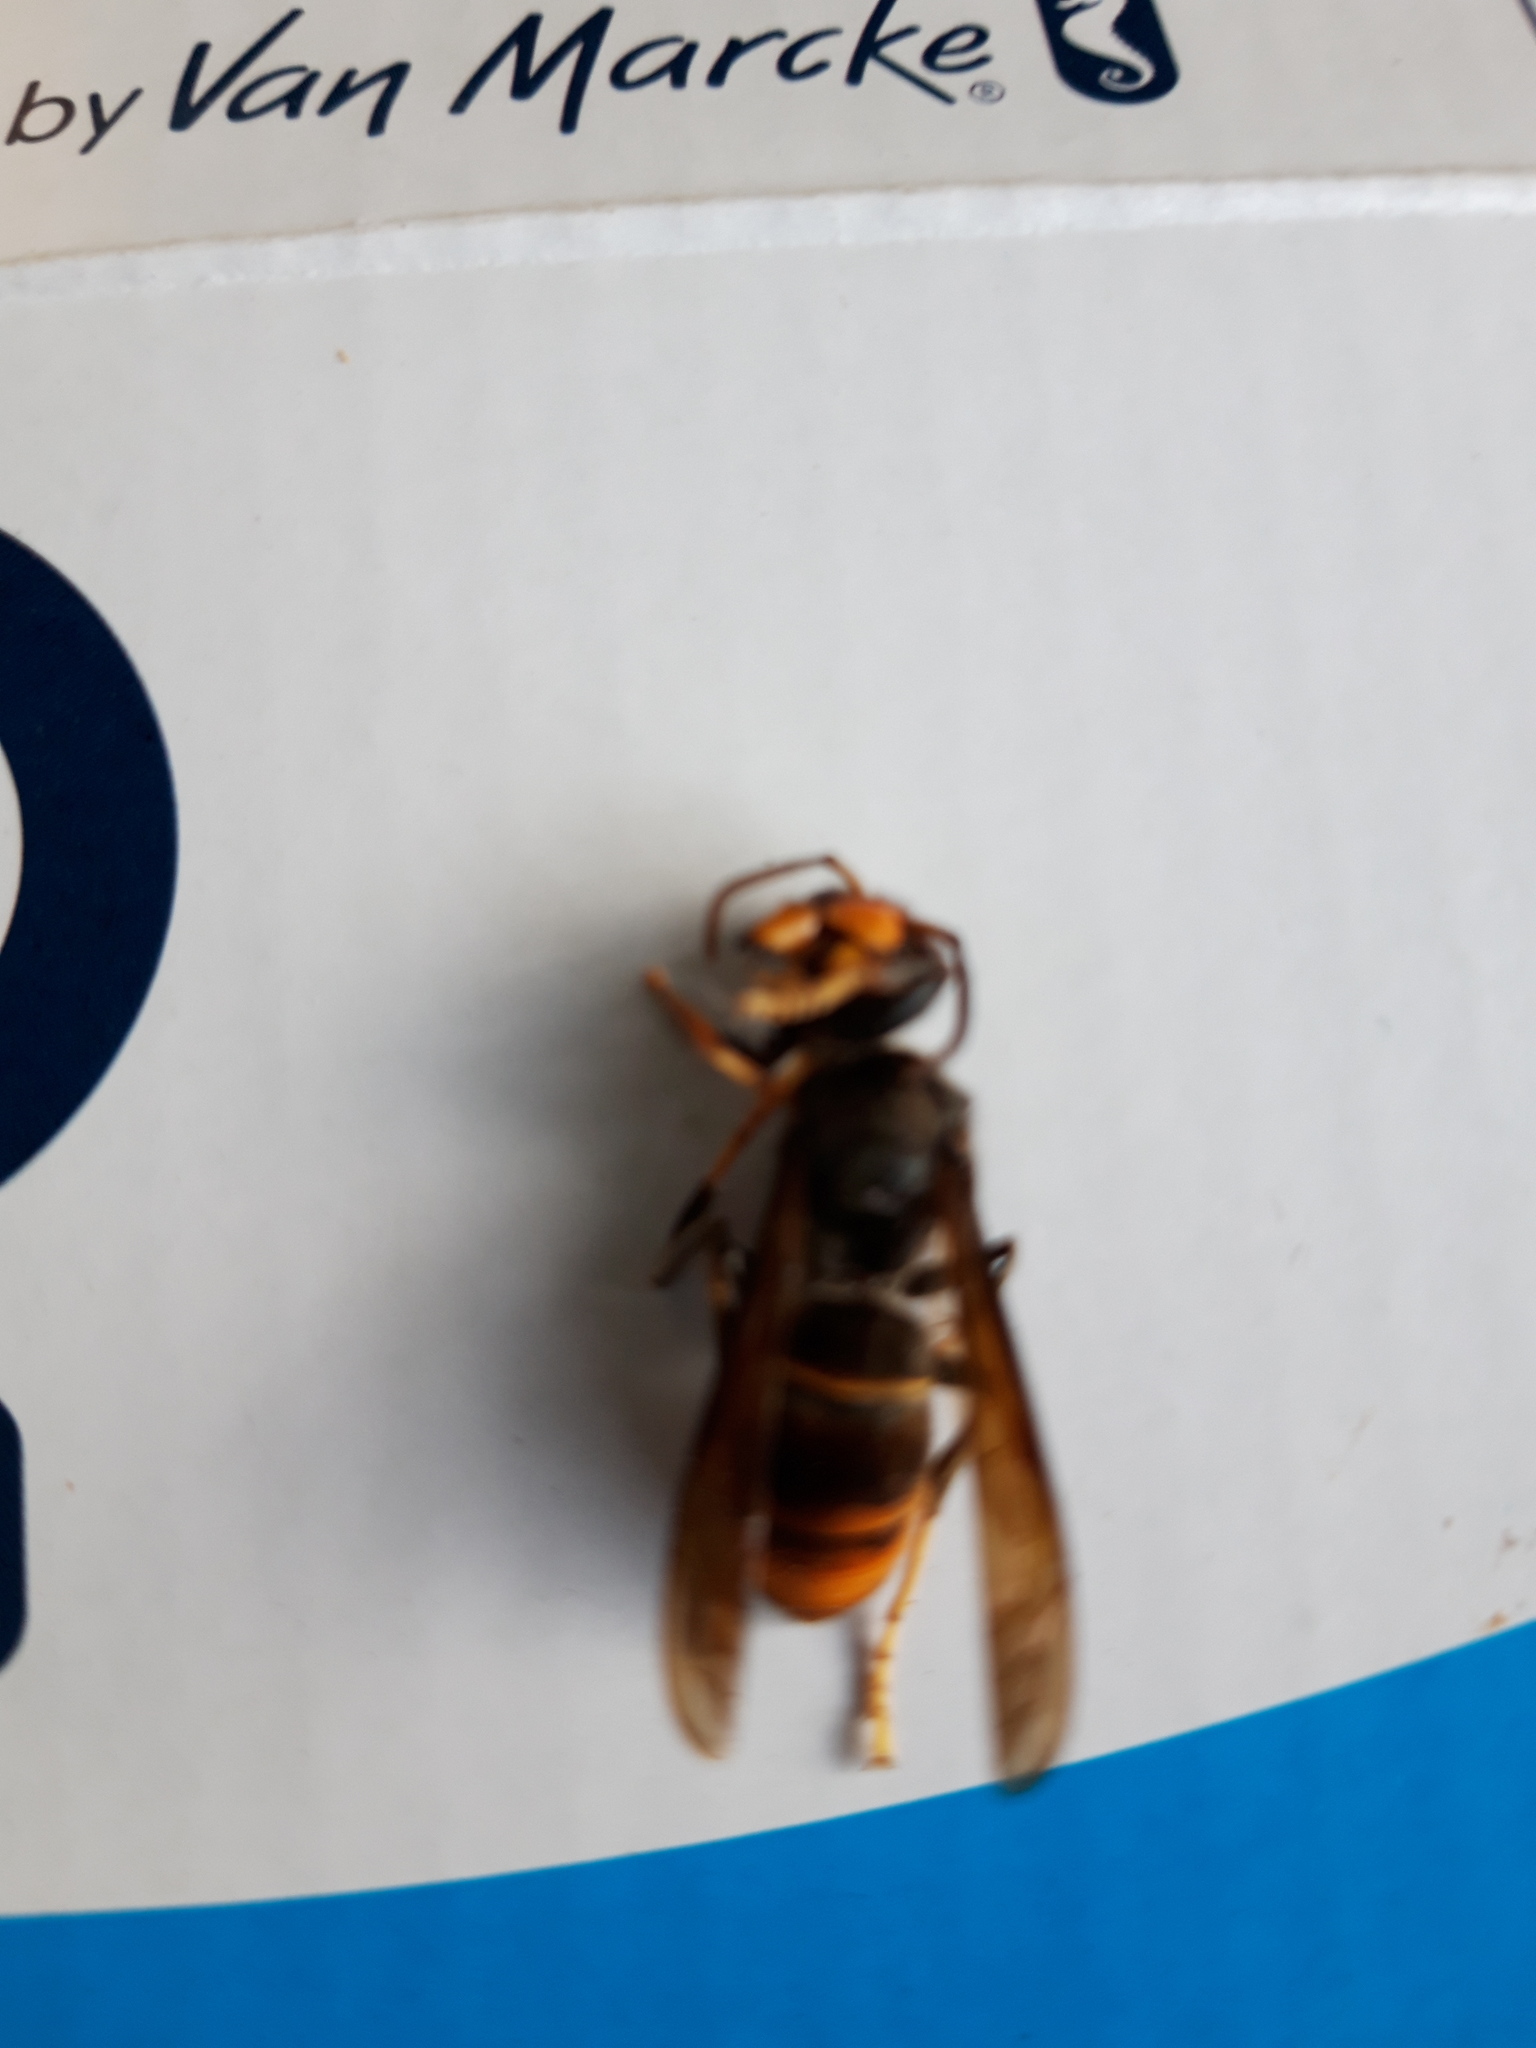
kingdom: Animalia
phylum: Arthropoda
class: Insecta
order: Hymenoptera
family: Vespidae
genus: Vespa
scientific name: Vespa velutina
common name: Asian hornet
